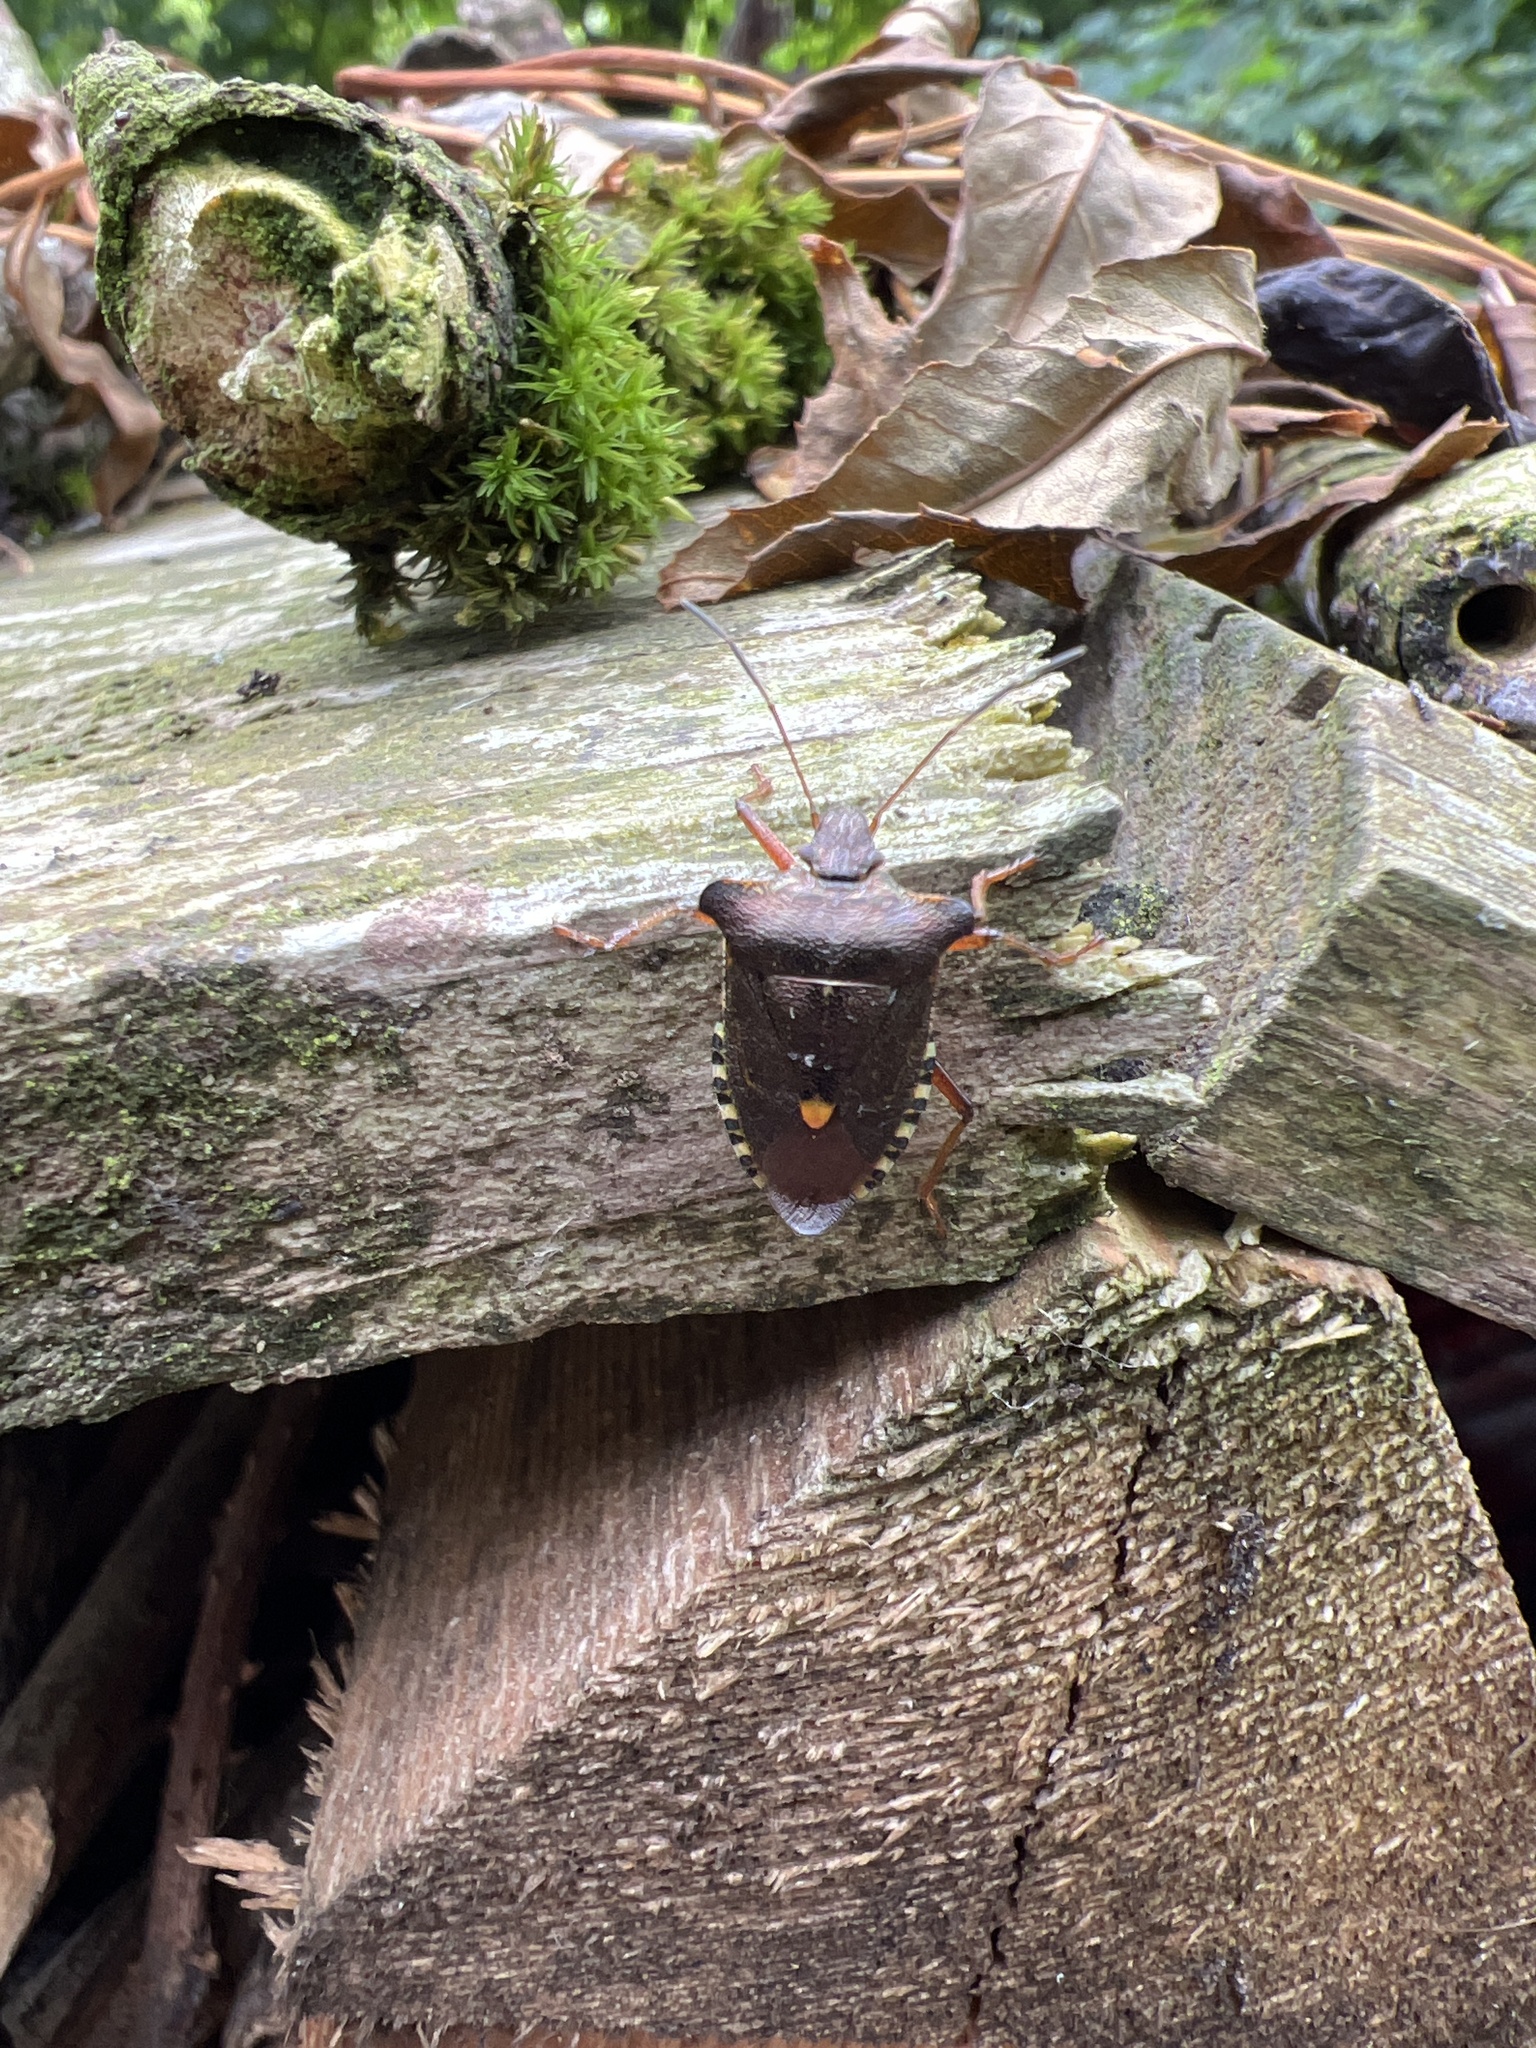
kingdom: Animalia
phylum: Arthropoda
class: Insecta
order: Hemiptera
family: Pentatomidae
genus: Pentatoma
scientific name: Pentatoma rufipes
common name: Forest bug
